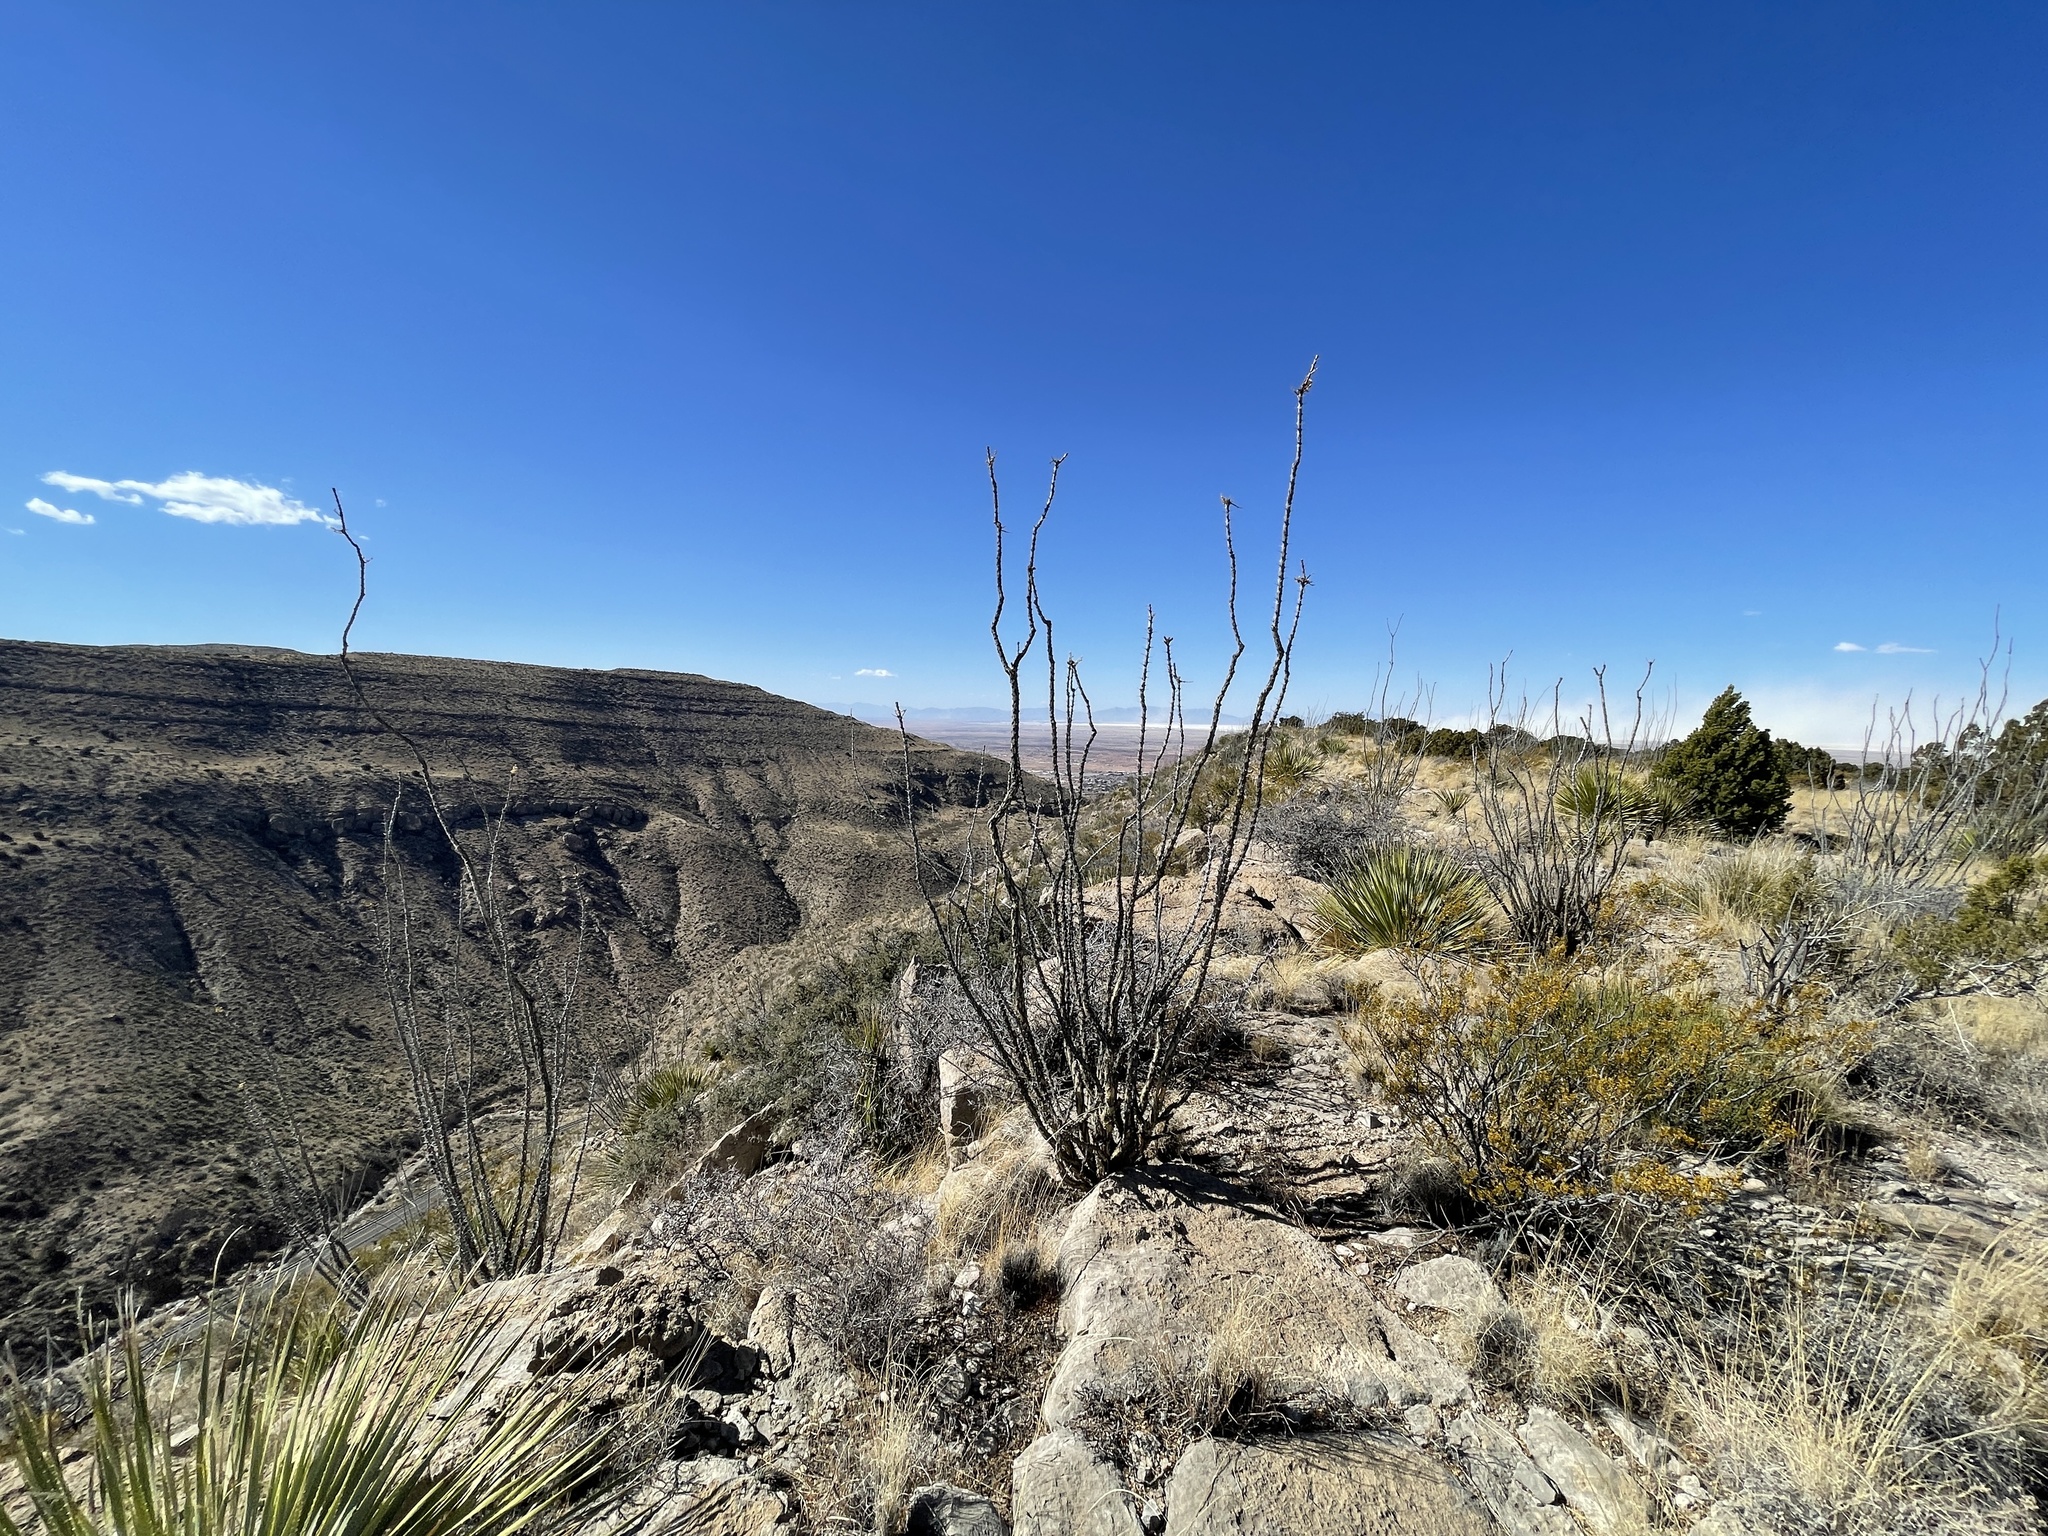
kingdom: Plantae
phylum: Tracheophyta
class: Magnoliopsida
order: Ericales
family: Fouquieriaceae
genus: Fouquieria
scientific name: Fouquieria splendens
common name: Vine-cactus
